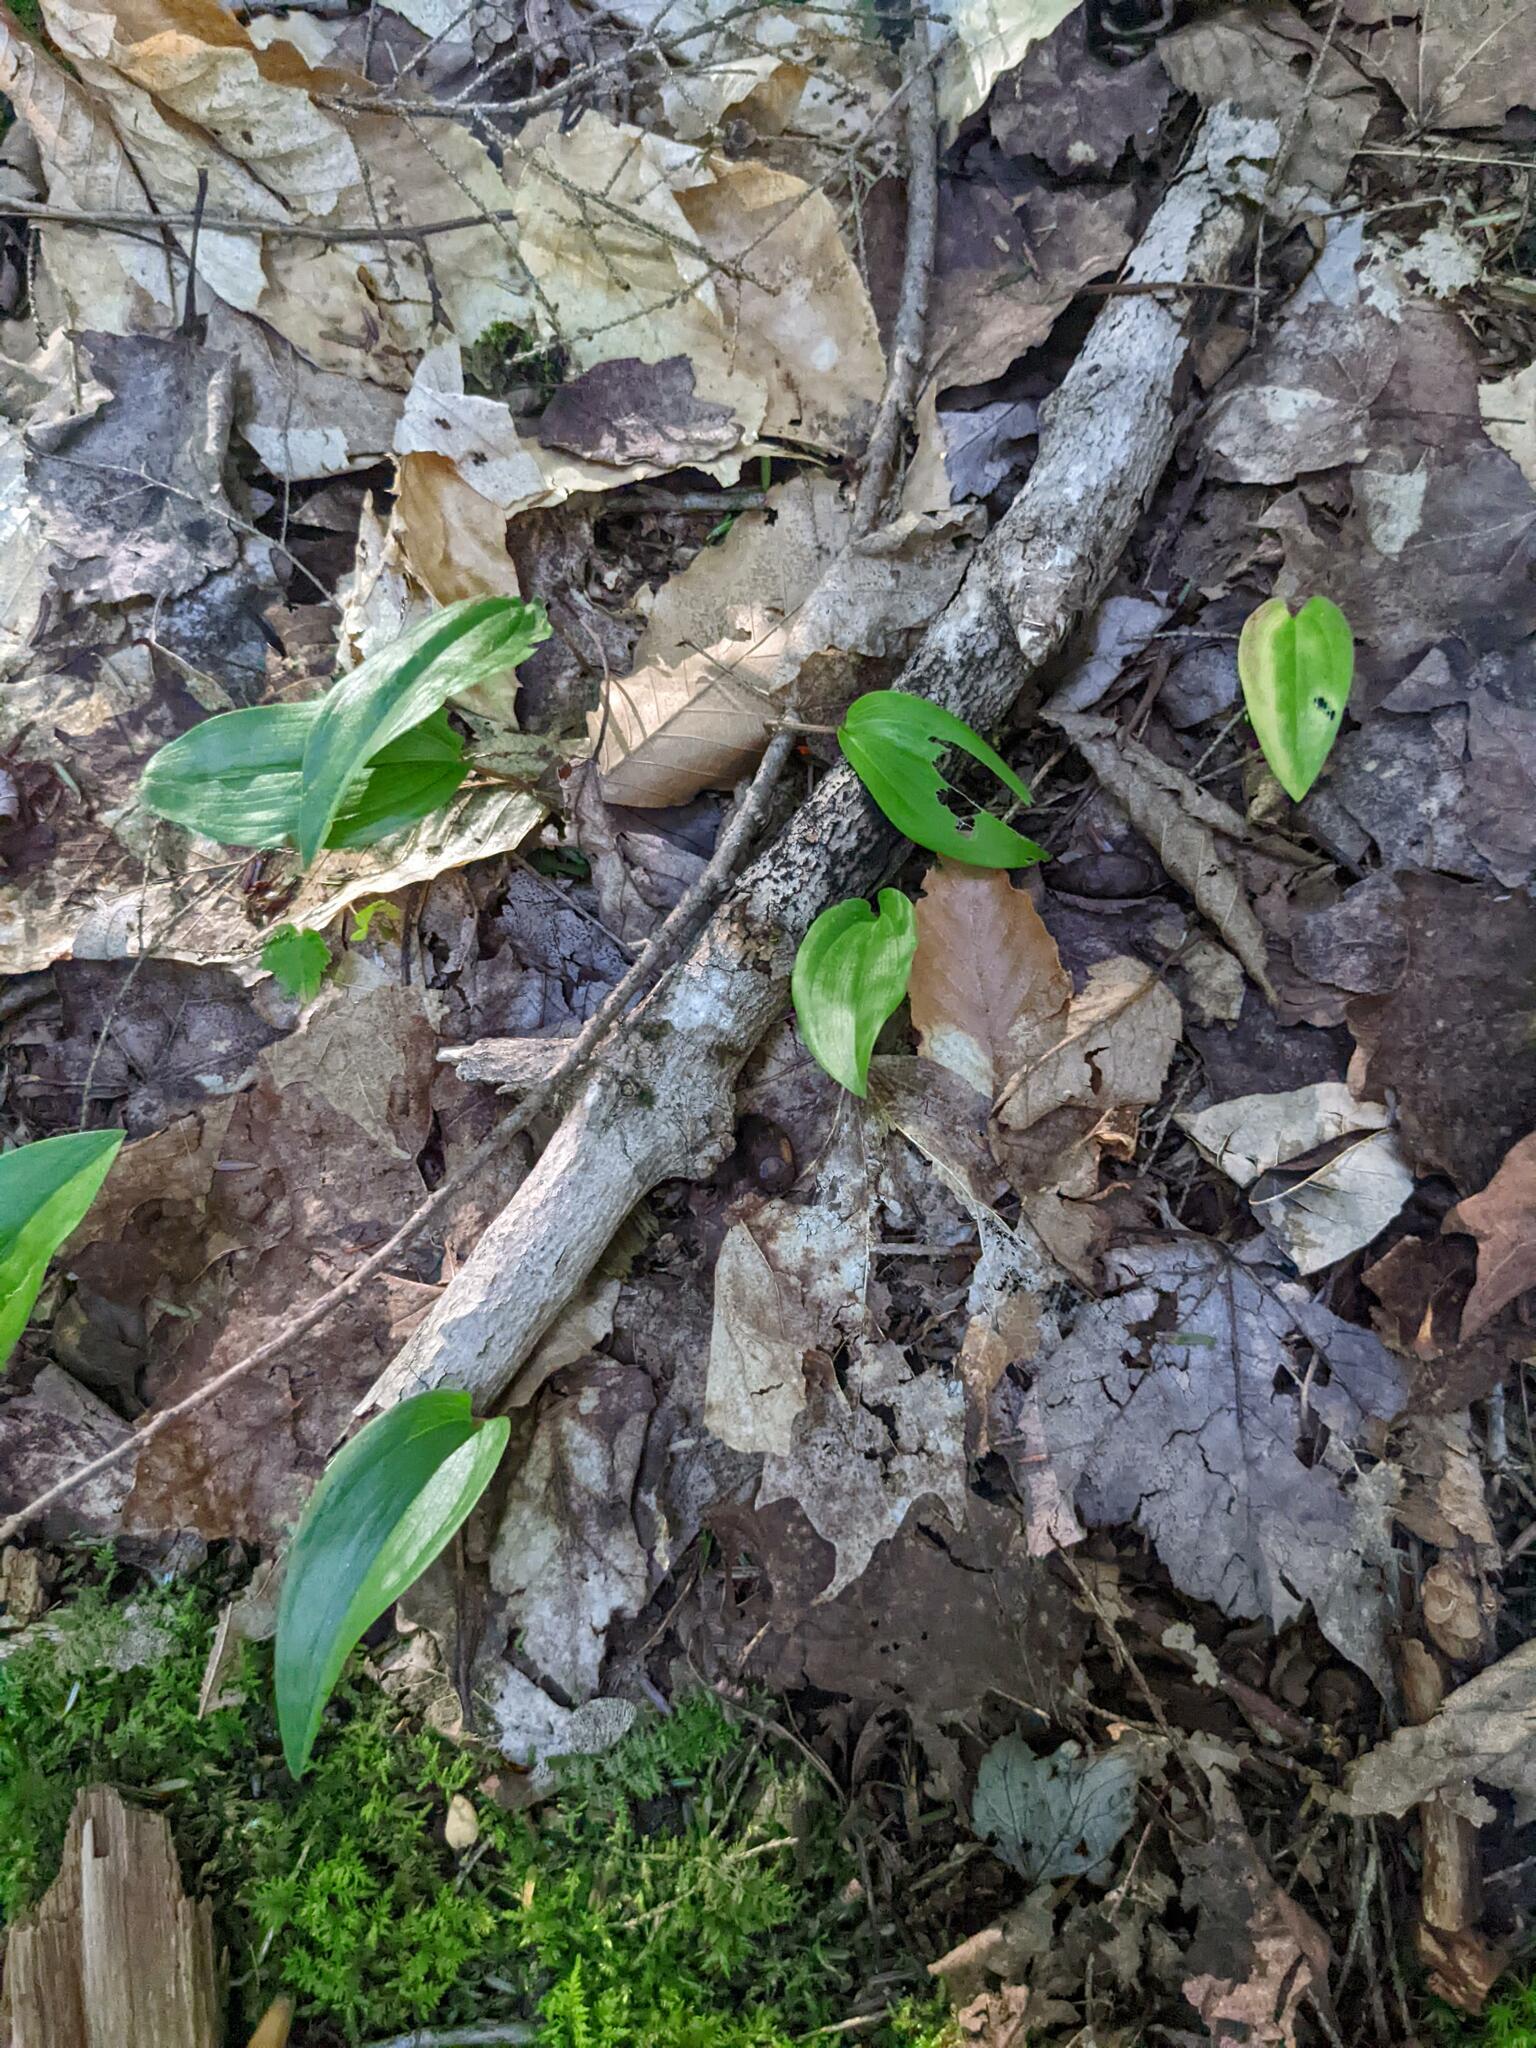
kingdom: Plantae
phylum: Tracheophyta
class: Liliopsida
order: Asparagales
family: Asparagaceae
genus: Maianthemum
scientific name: Maianthemum canadense
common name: False lily-of-the-valley
